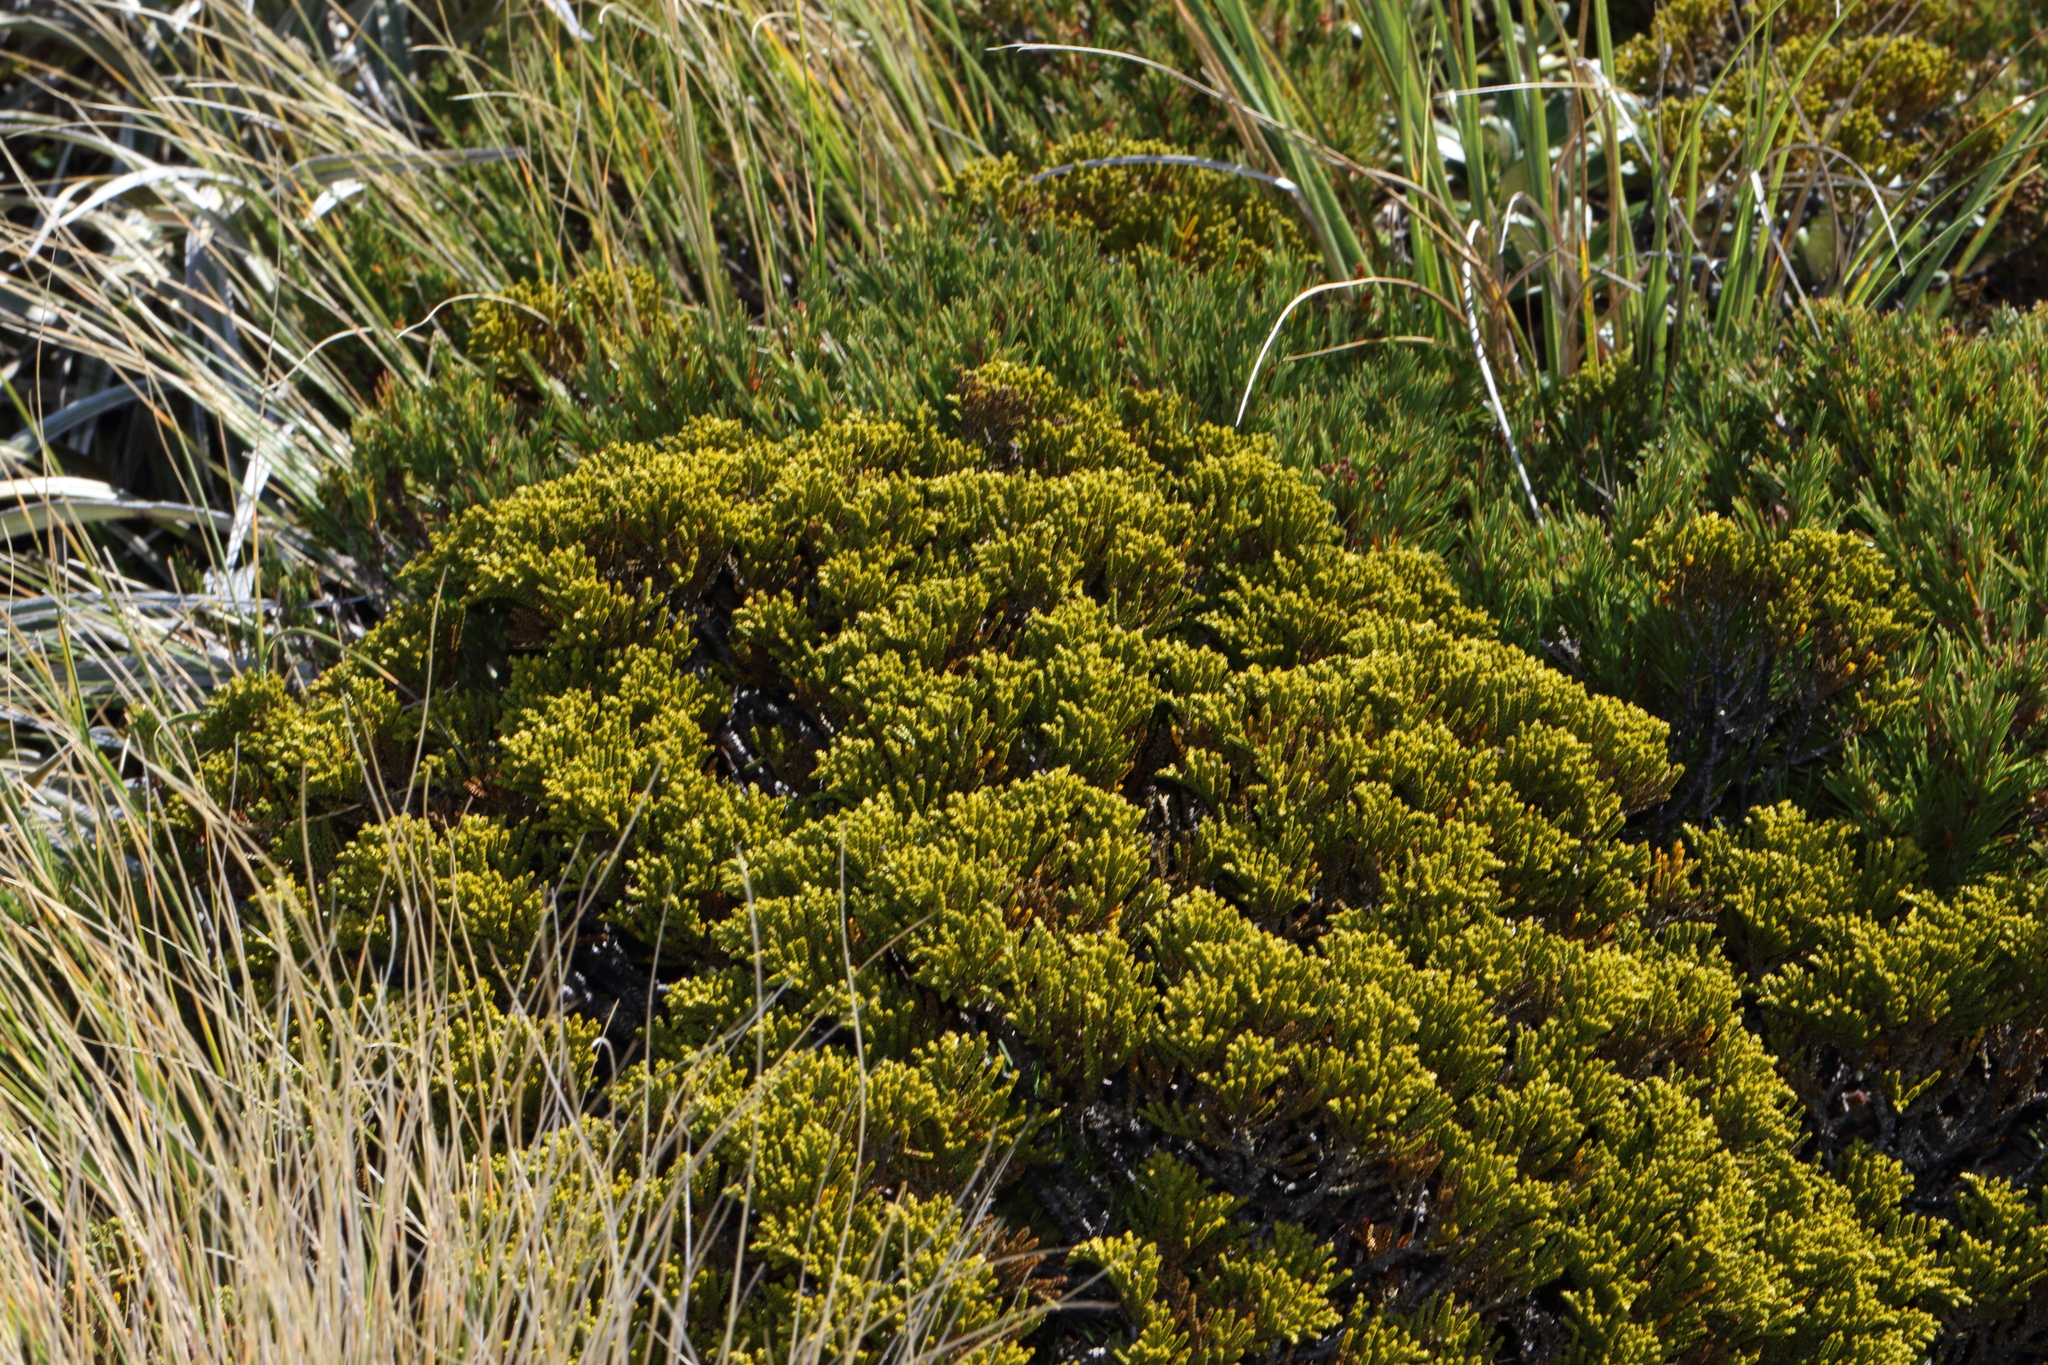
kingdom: Plantae
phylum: Tracheophyta
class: Magnoliopsida
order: Lamiales
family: Plantaginaceae
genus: Veronica
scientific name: Veronica tetragona
